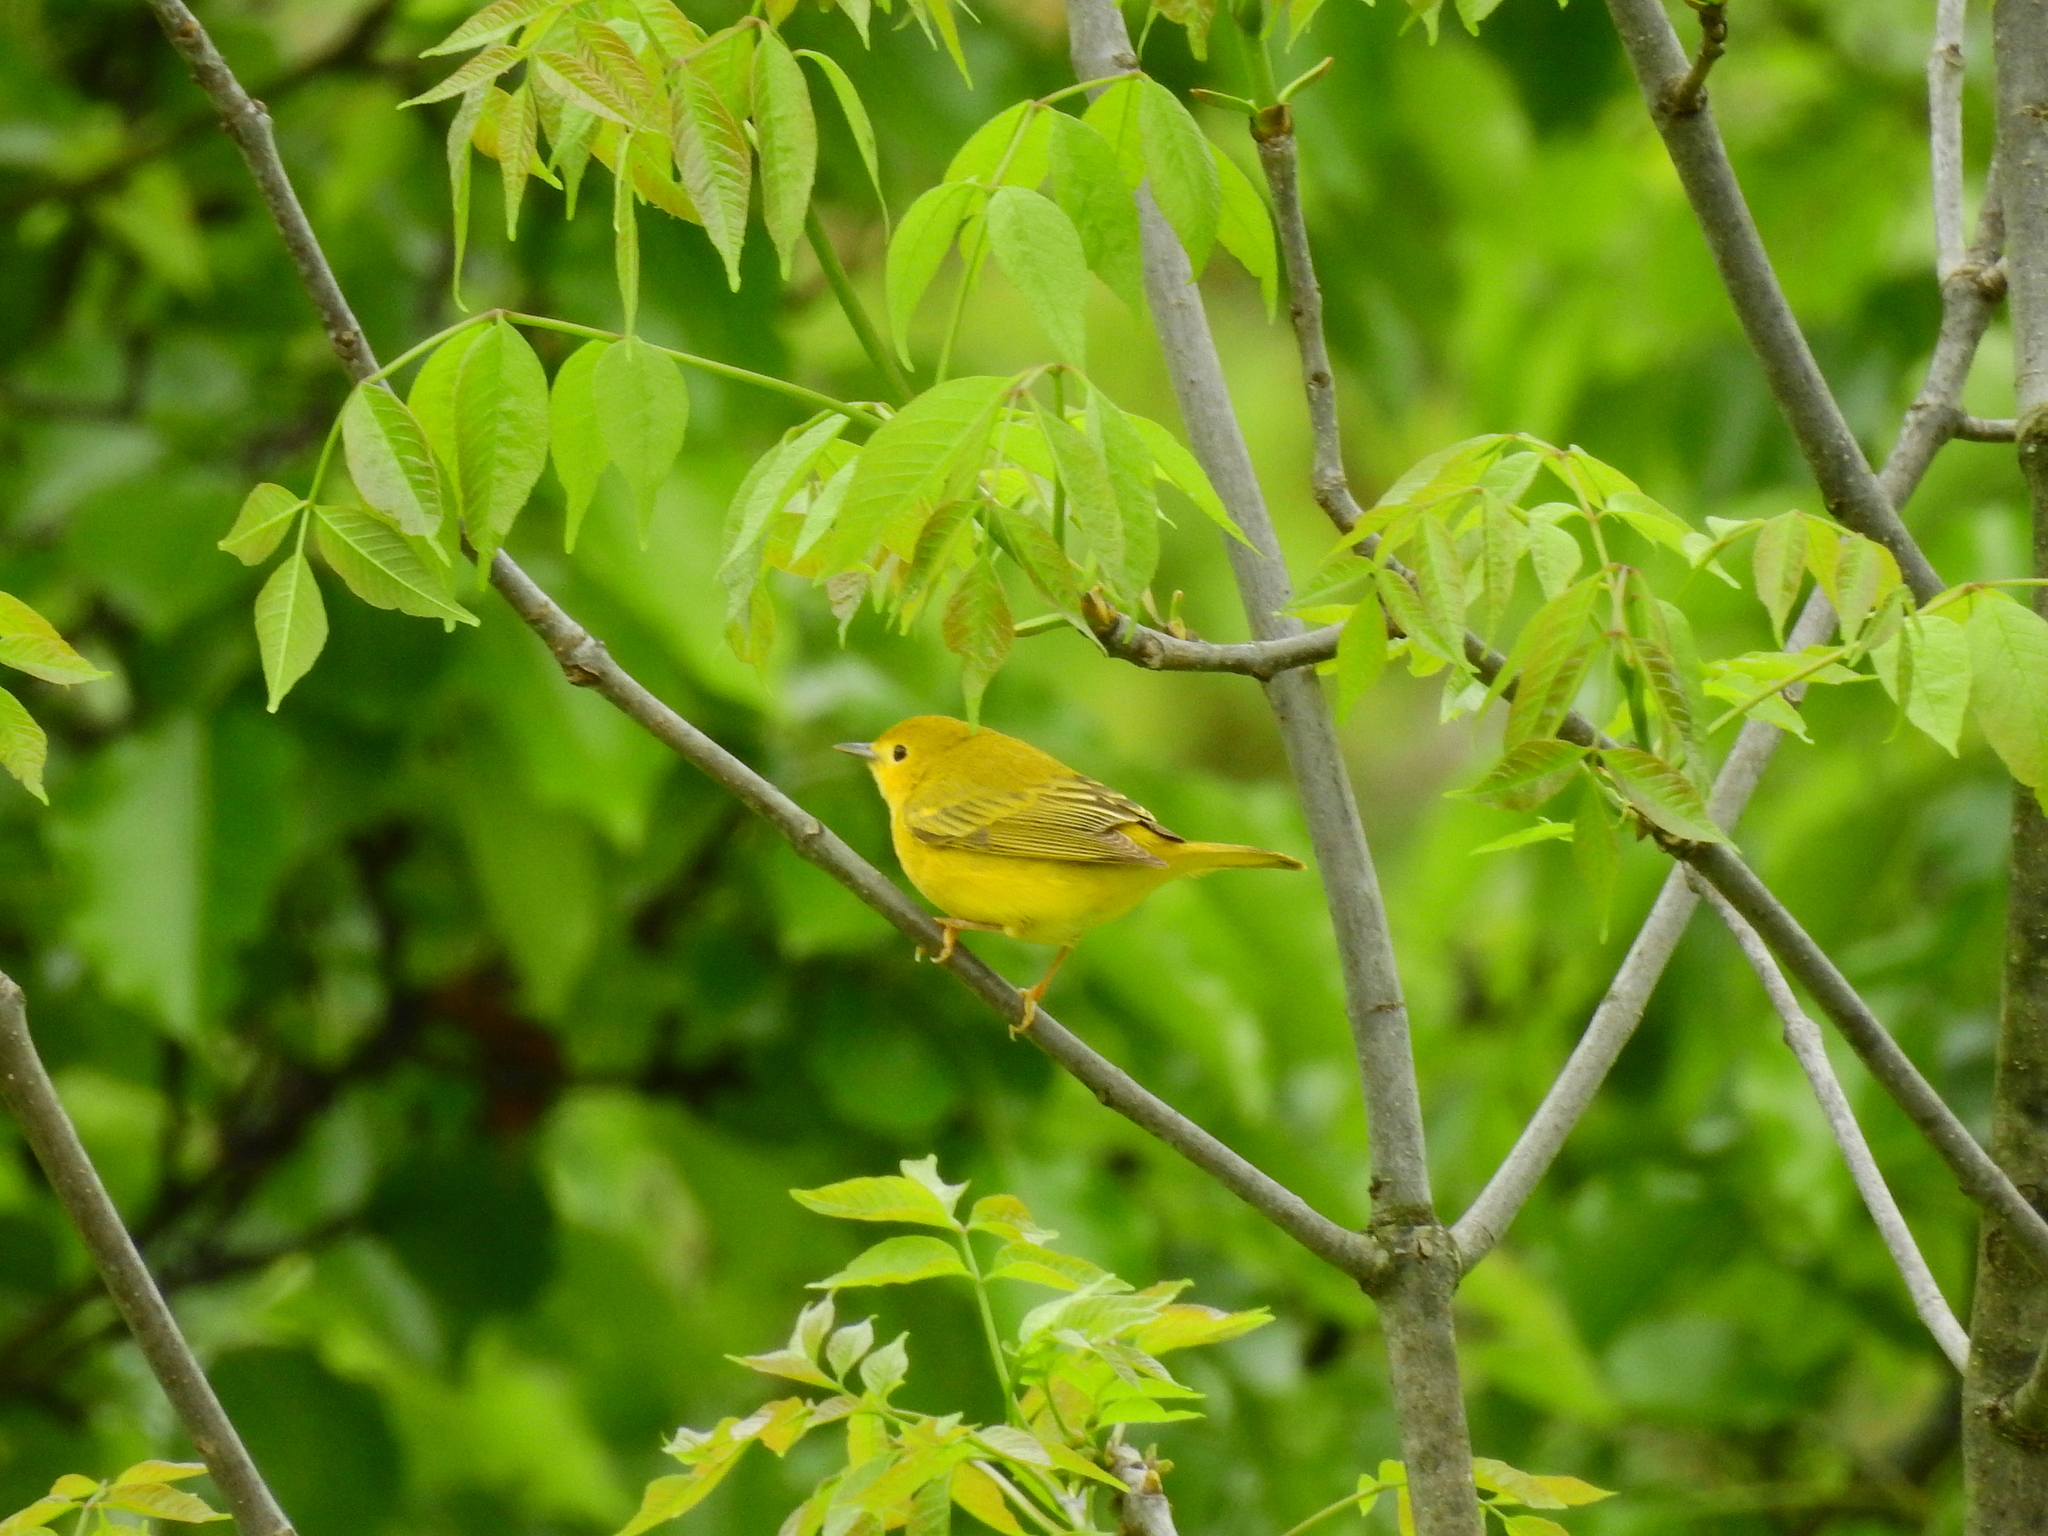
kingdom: Animalia
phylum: Chordata
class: Aves
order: Passeriformes
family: Parulidae
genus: Setophaga
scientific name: Setophaga petechia
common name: Yellow warbler
